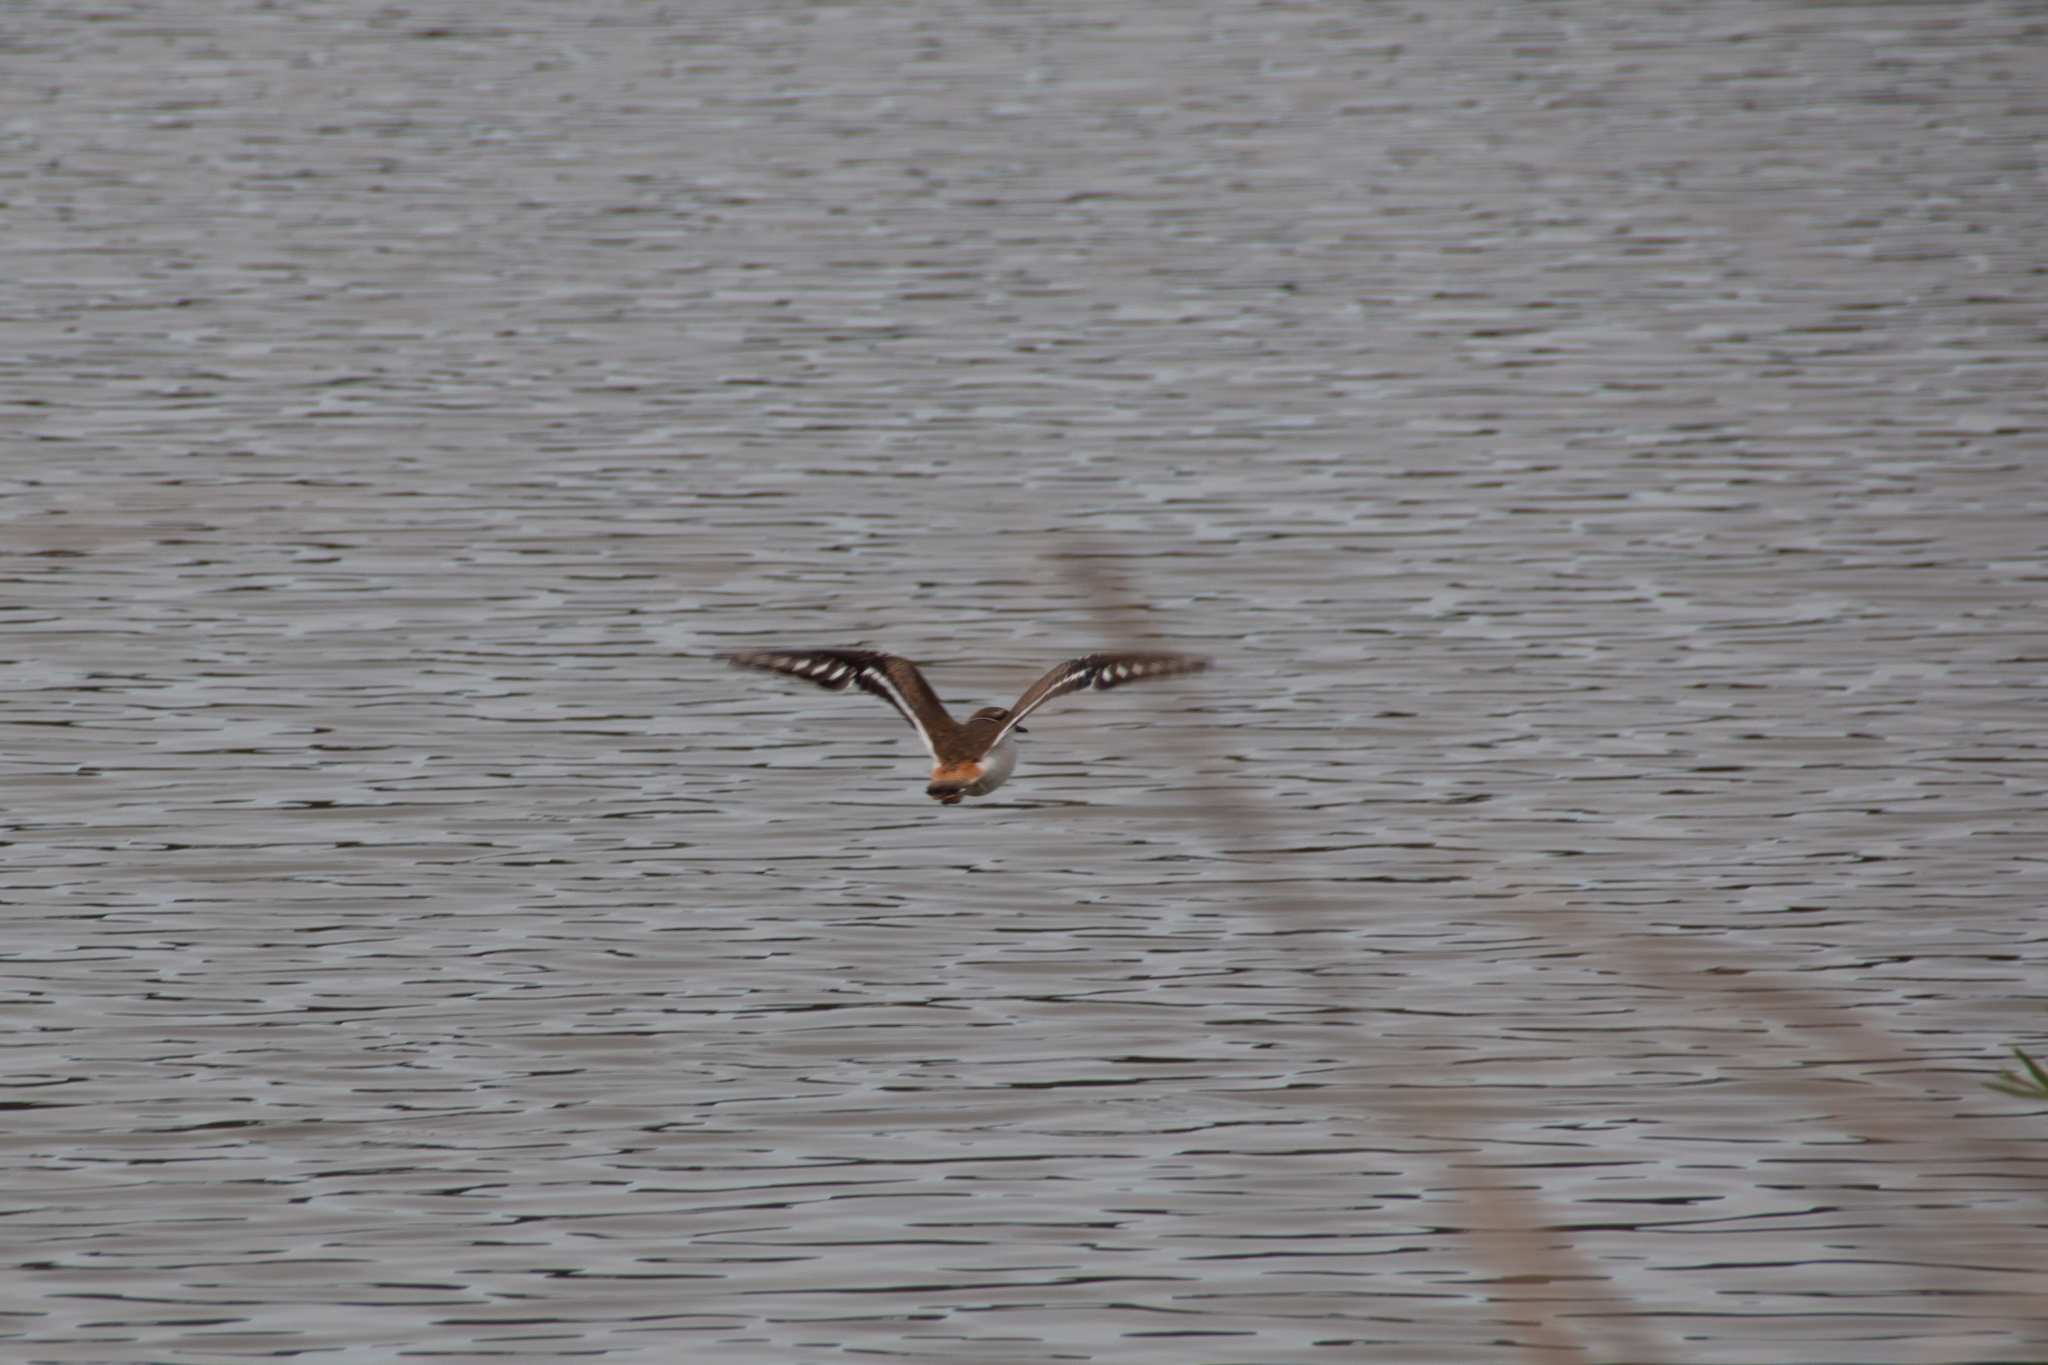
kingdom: Animalia
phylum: Chordata
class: Aves
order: Charadriiformes
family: Charadriidae
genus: Charadrius
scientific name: Charadrius vociferus
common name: Killdeer
